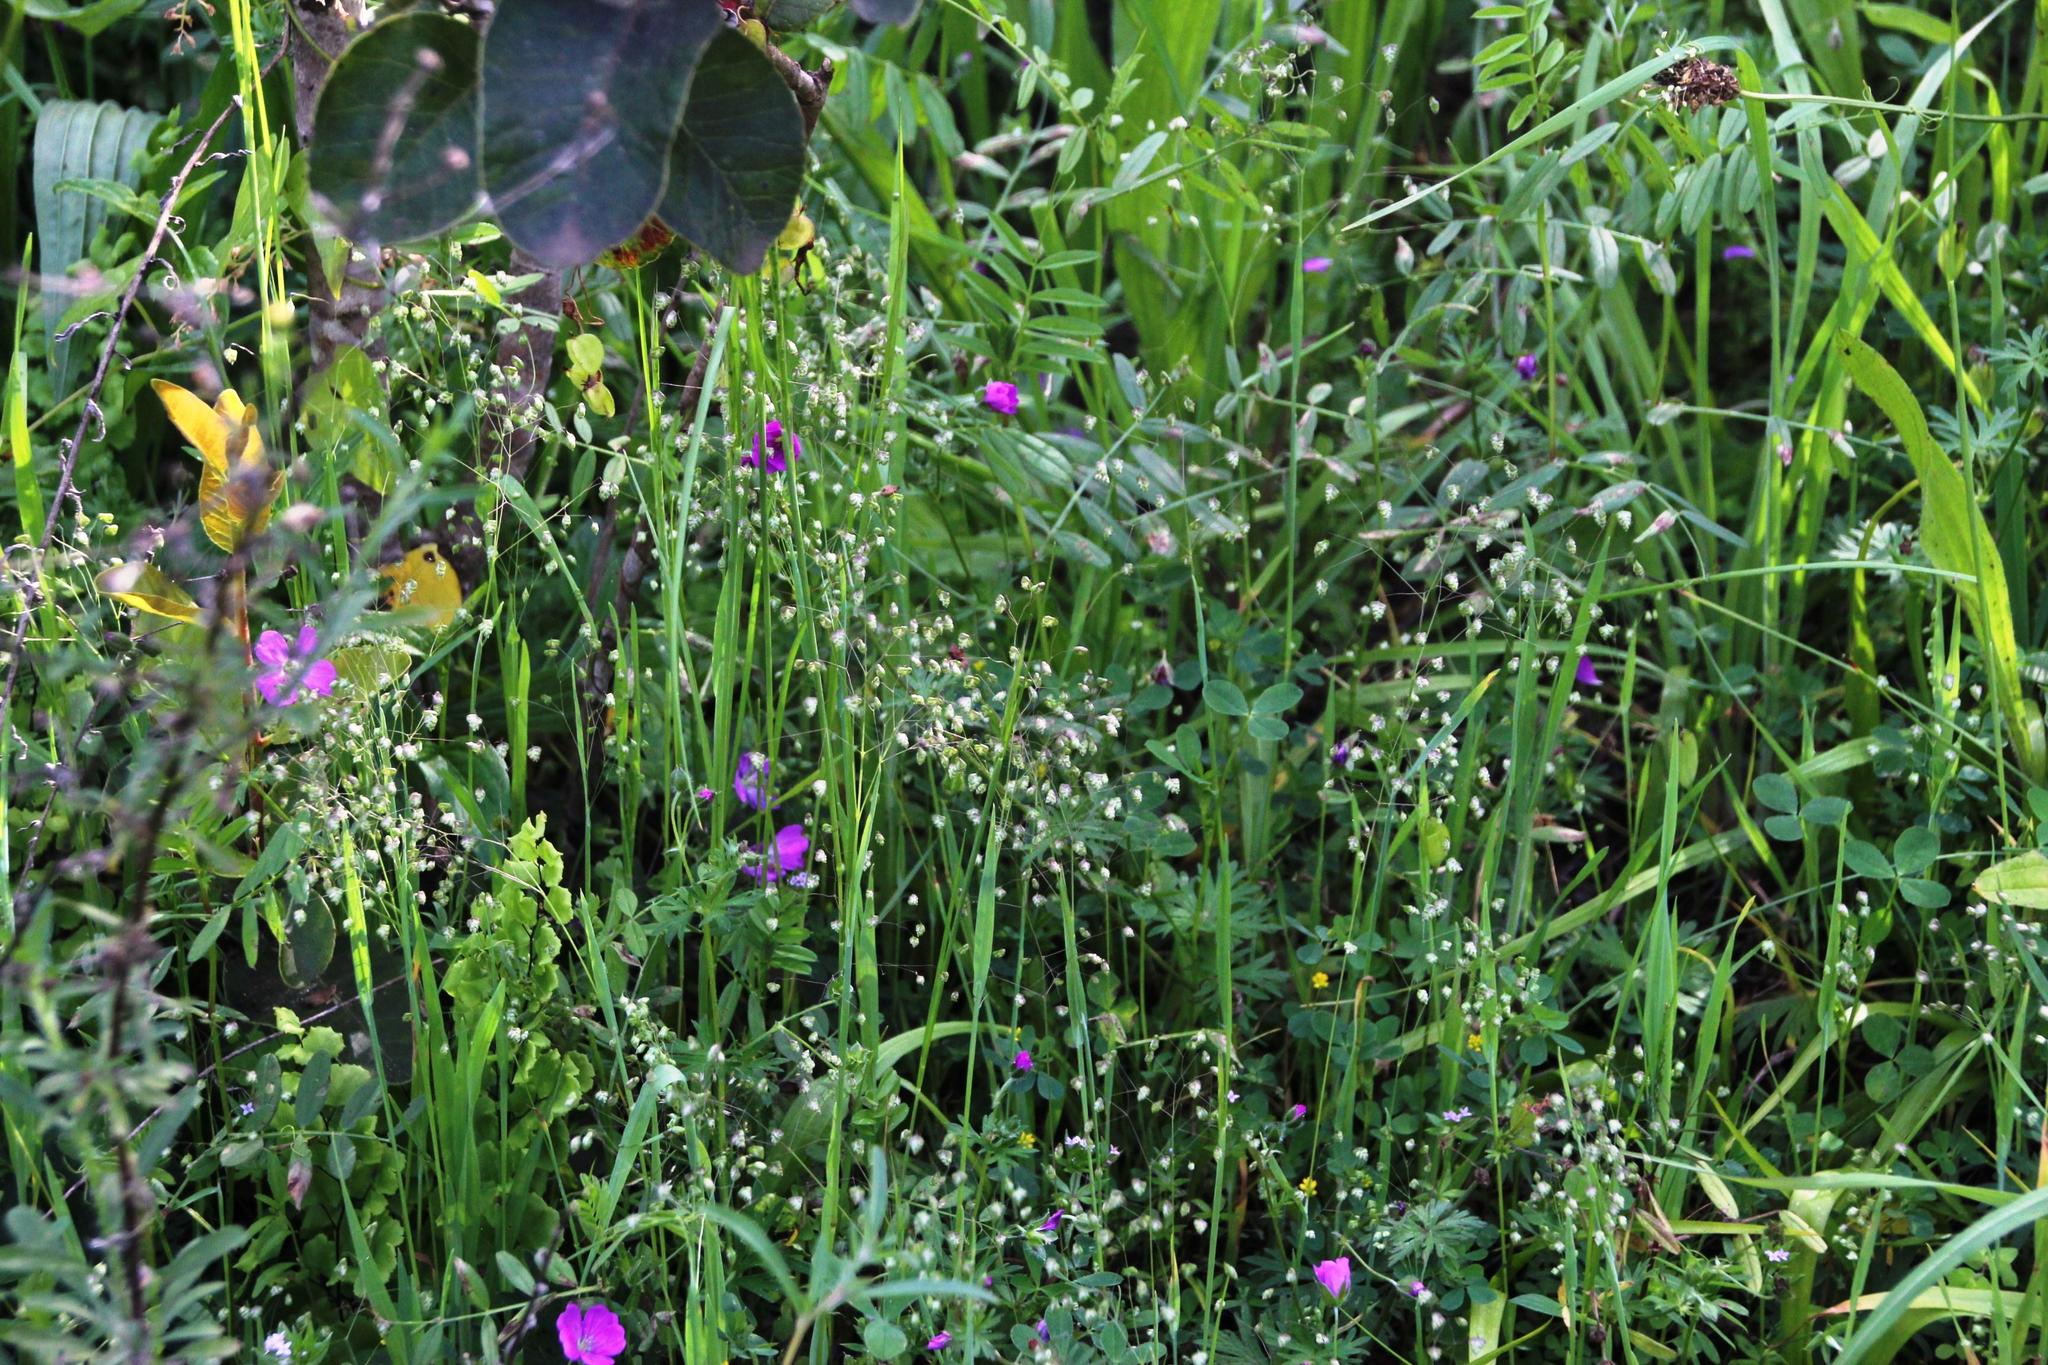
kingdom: Plantae
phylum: Tracheophyta
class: Liliopsida
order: Poales
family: Poaceae
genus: Briza
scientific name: Briza minor
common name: Lesser quaking-grass
